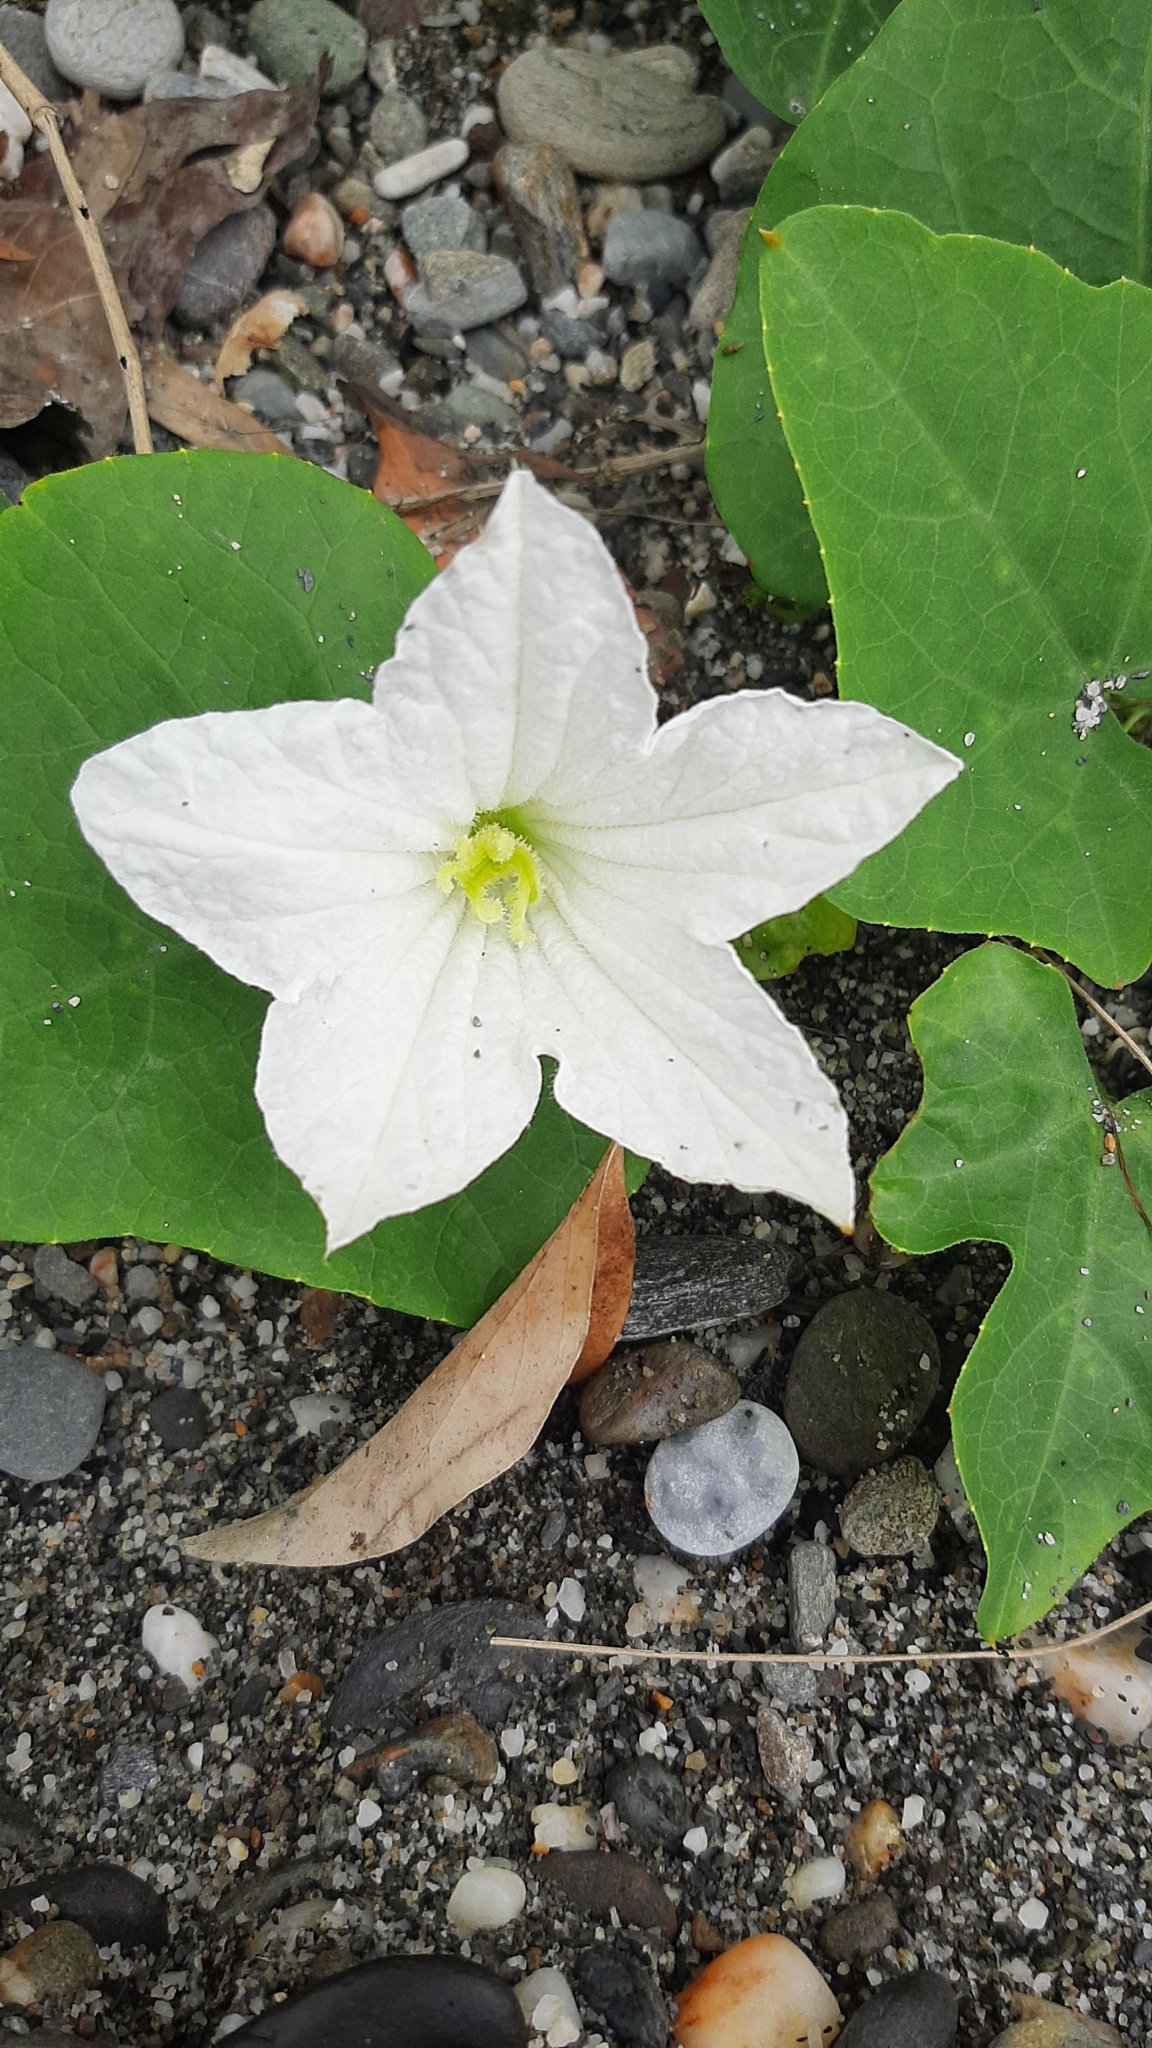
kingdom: Plantae
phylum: Tracheophyta
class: Magnoliopsida
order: Cucurbitales
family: Cucurbitaceae
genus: Coccinia
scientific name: Coccinia grandis
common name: Ivy gourd
